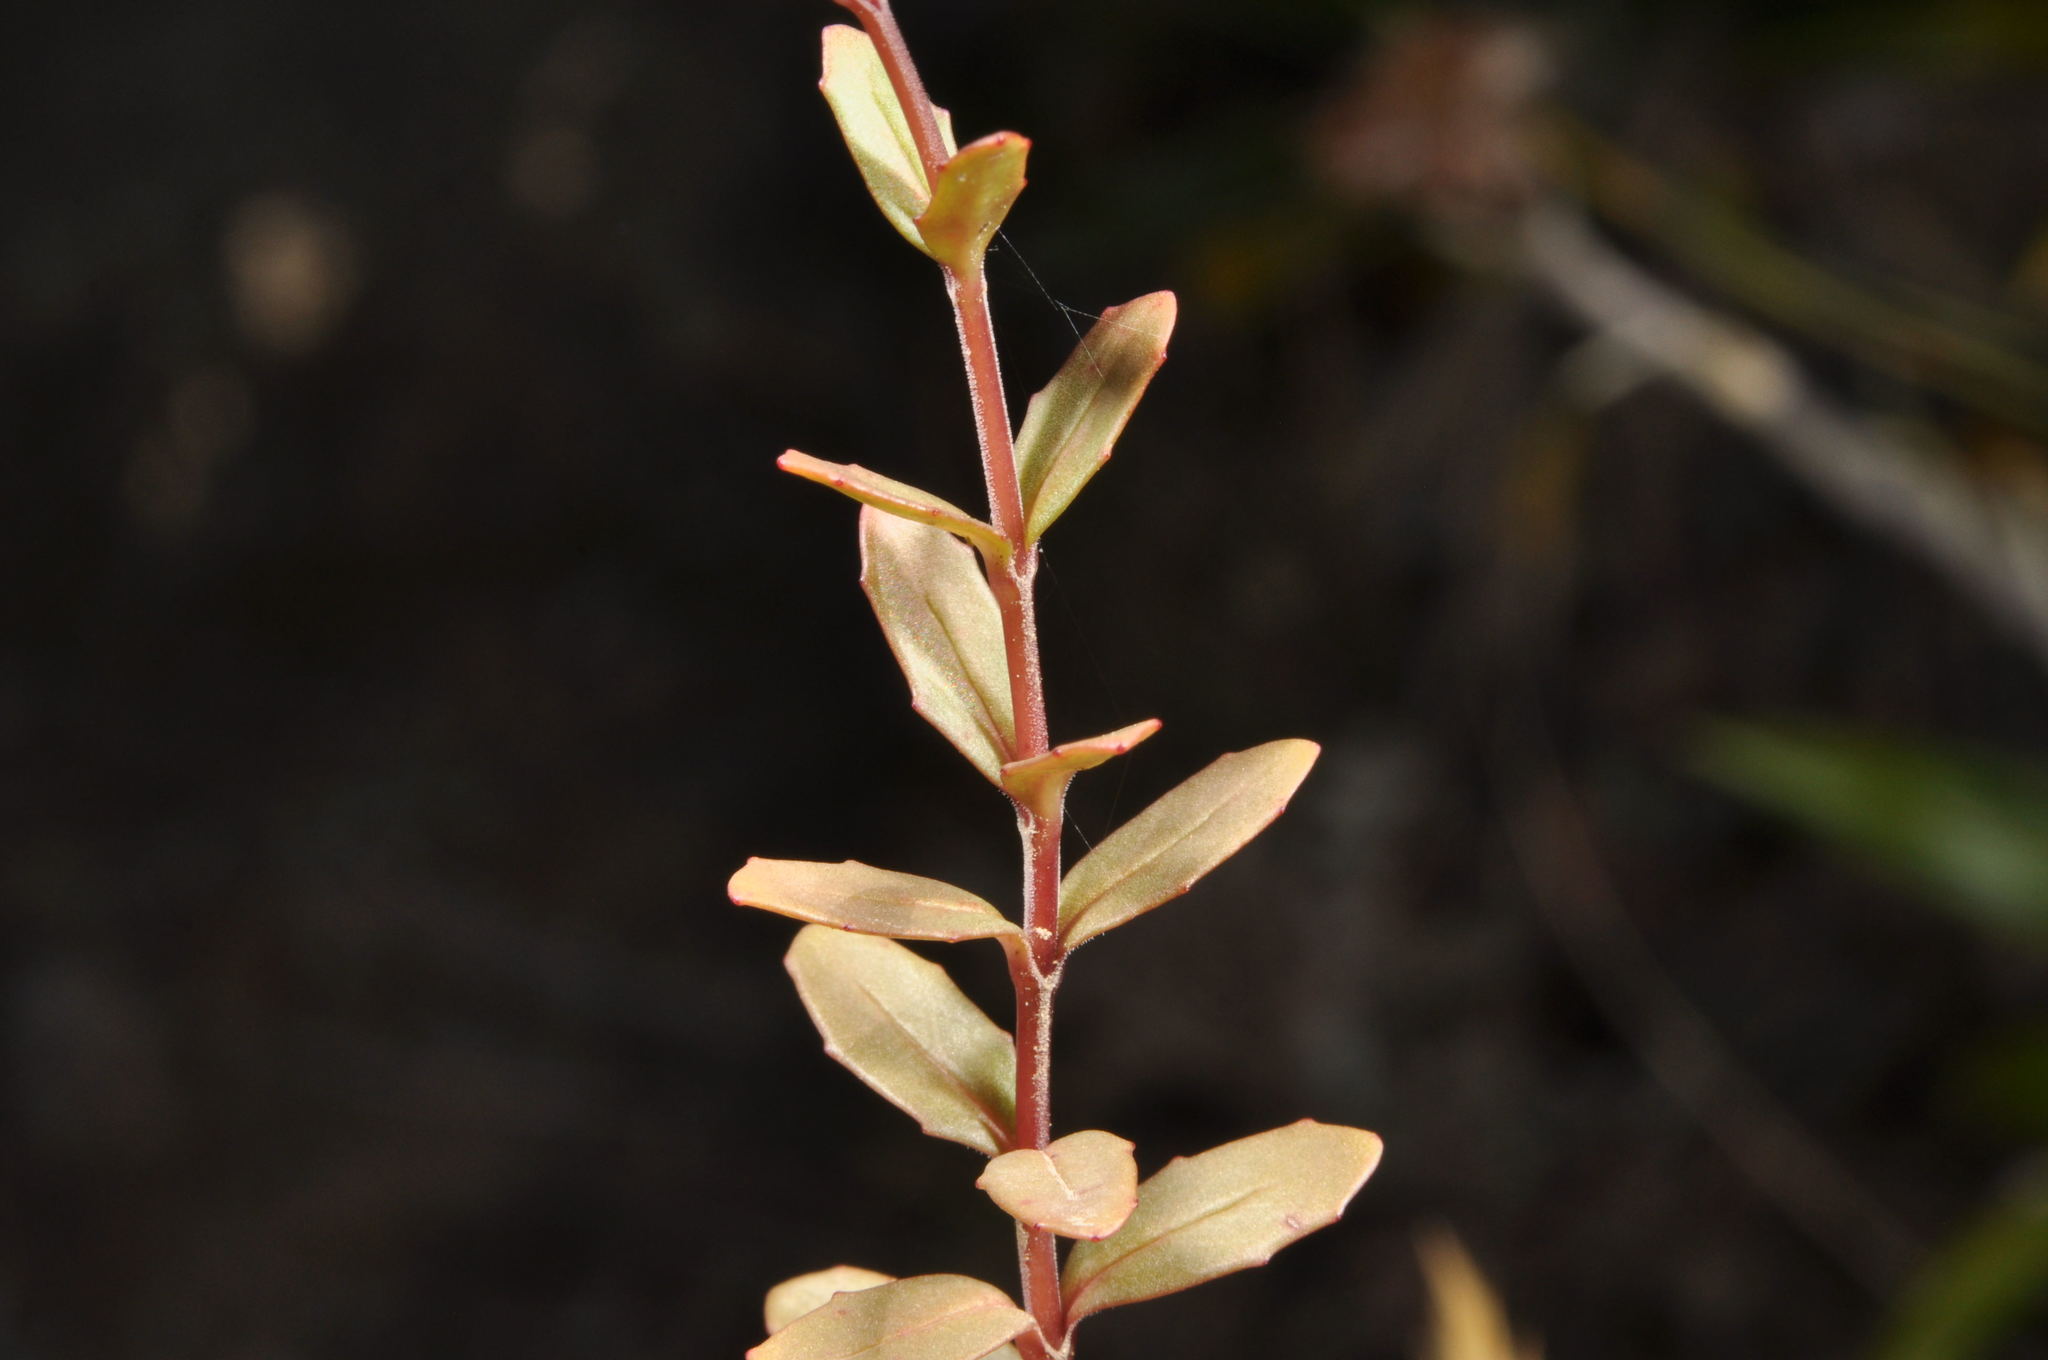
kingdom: Plantae
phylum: Tracheophyta
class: Magnoliopsida
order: Myrtales
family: Onagraceae
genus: Epilobium
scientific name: Epilobium alsinoides
